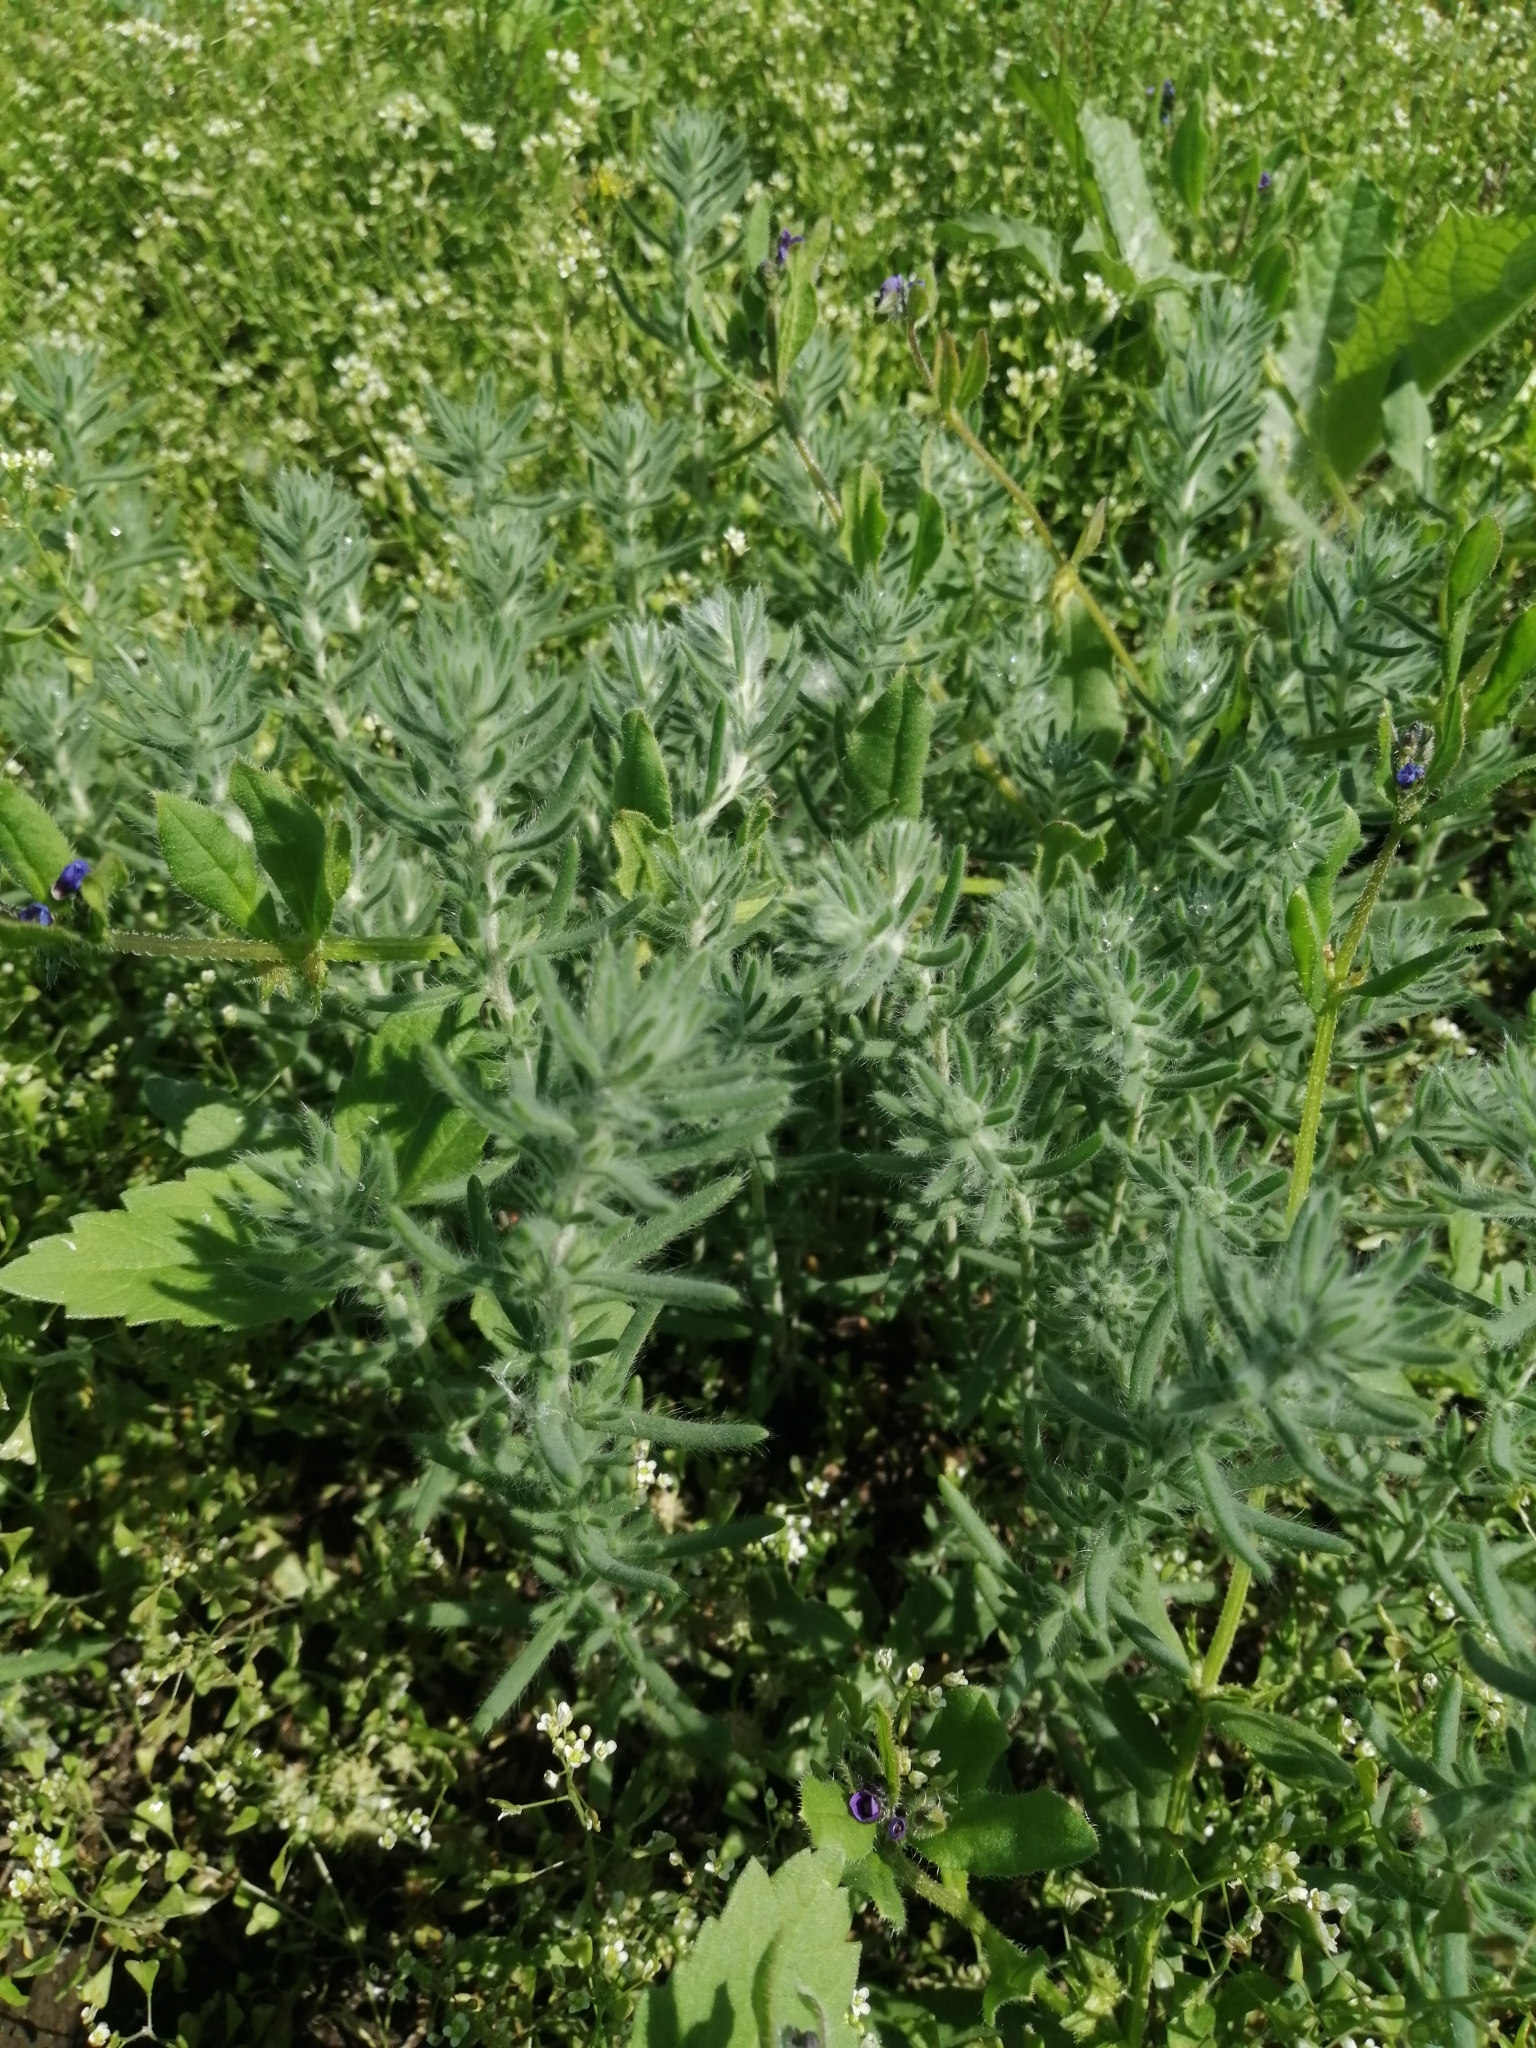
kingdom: Plantae
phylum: Tracheophyta
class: Magnoliopsida
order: Caryophyllales
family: Amaranthaceae
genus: Sedobassia
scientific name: Sedobassia sedoides
